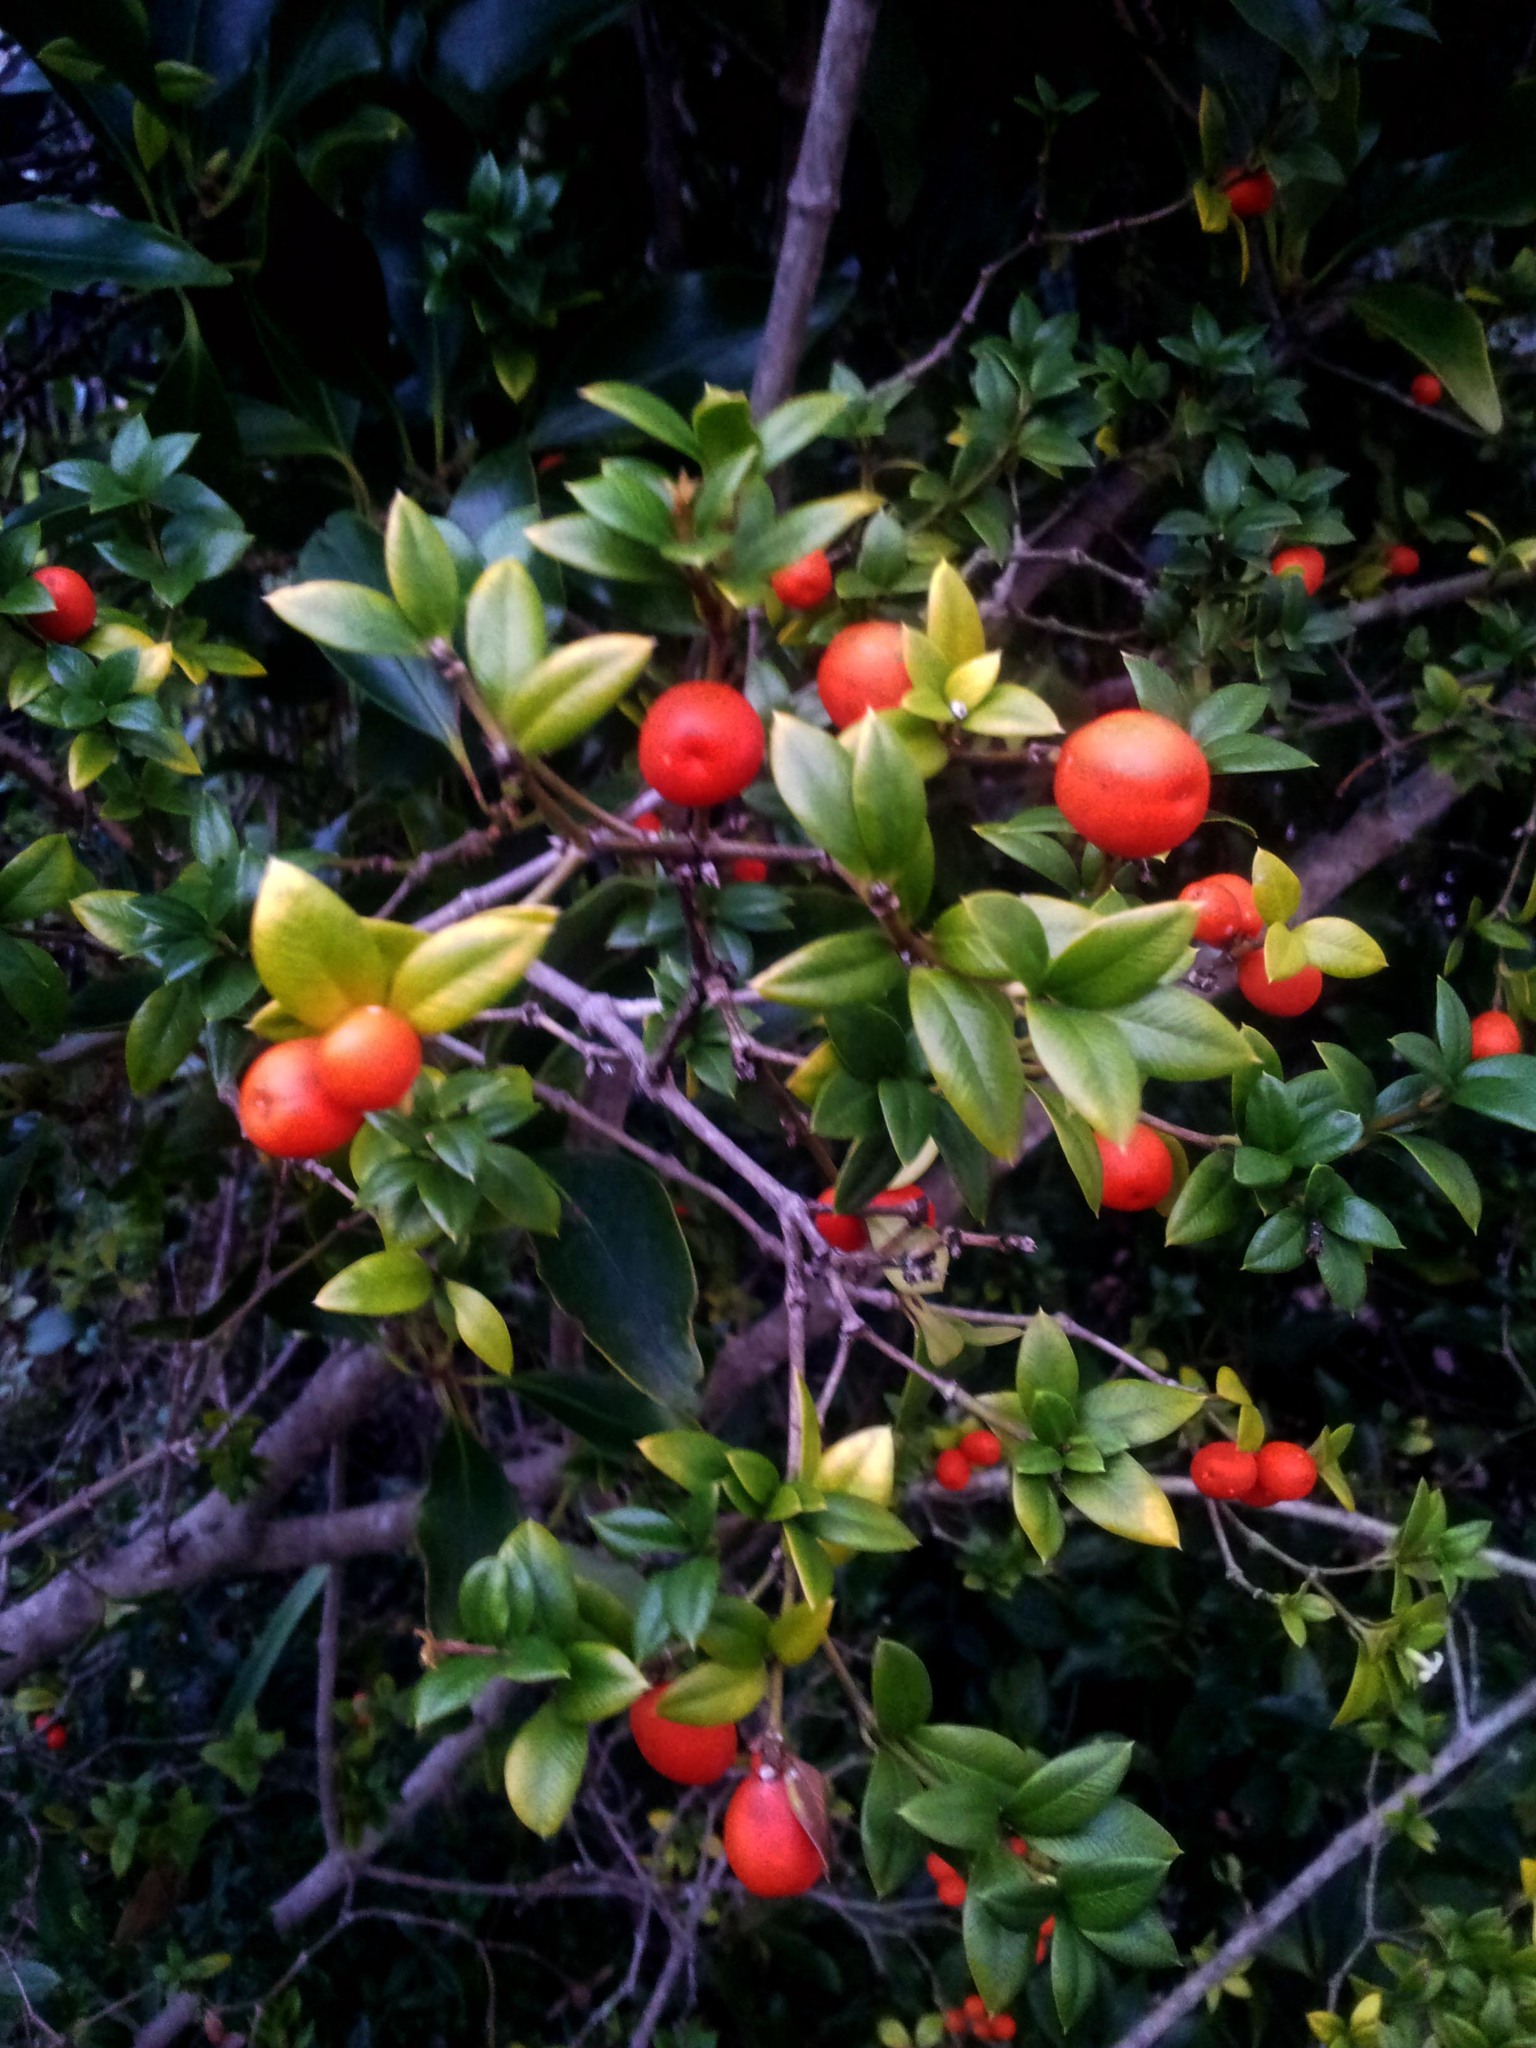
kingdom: Plantae
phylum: Tracheophyta
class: Magnoliopsida
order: Gentianales
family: Apocynaceae
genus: Alyxia
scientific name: Alyxia ruscifolia
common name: Chainfruit
